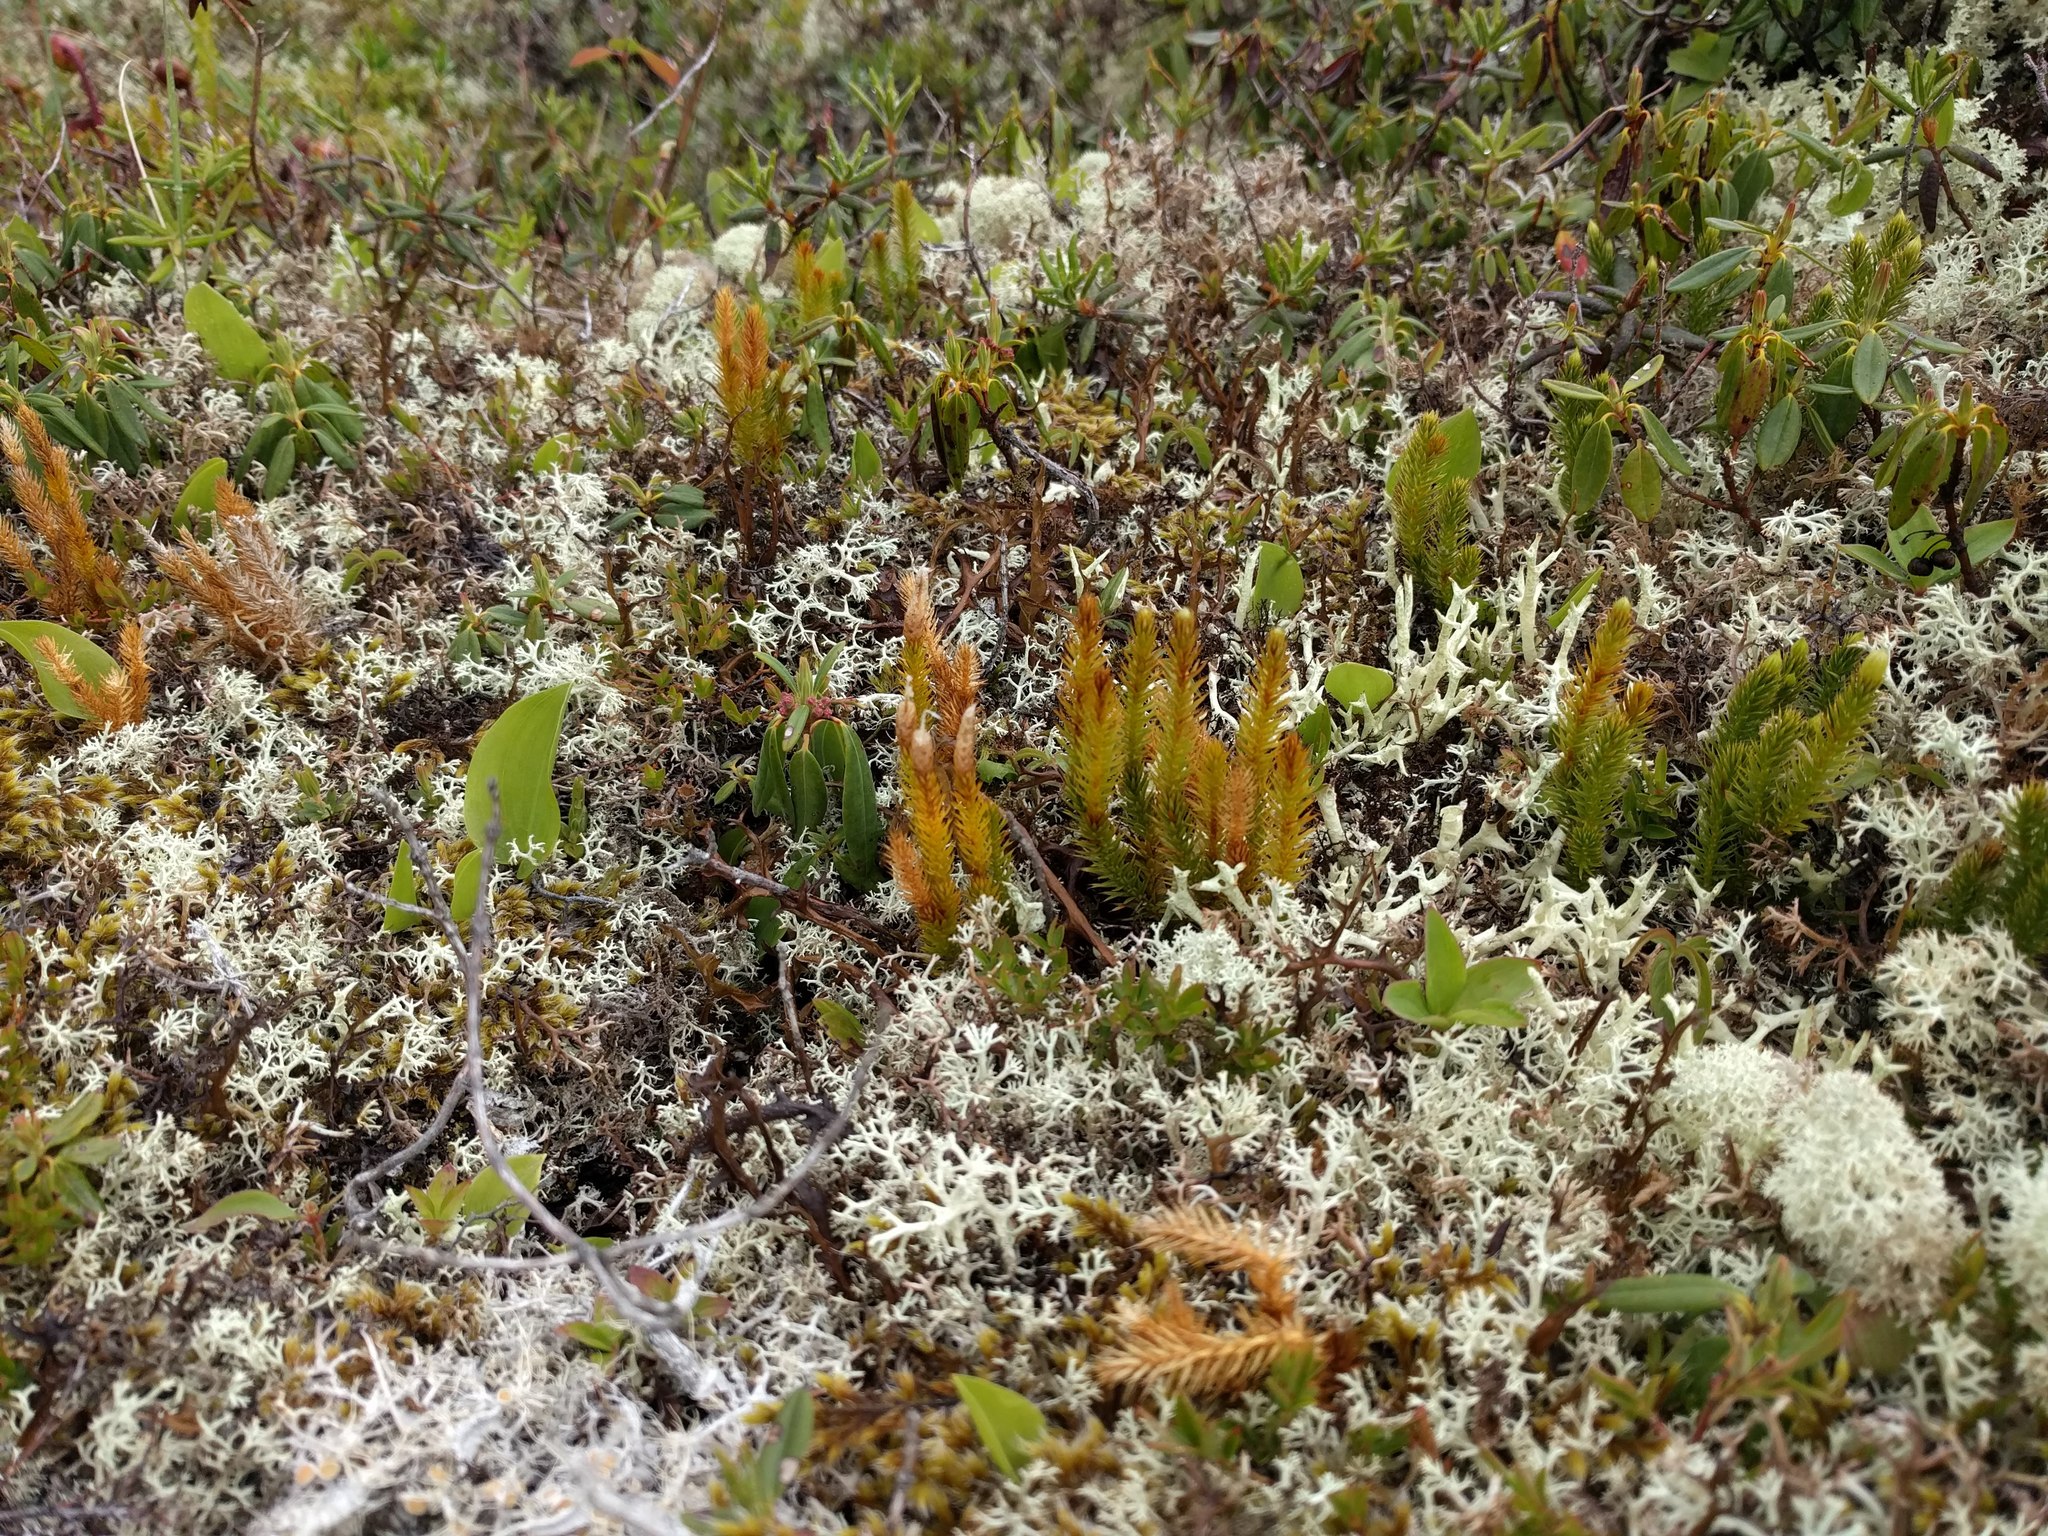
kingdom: Plantae
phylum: Tracheophyta
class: Lycopodiopsida
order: Lycopodiales
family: Lycopodiaceae
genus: Spinulum
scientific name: Spinulum annotinum
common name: Interrupted club-moss
